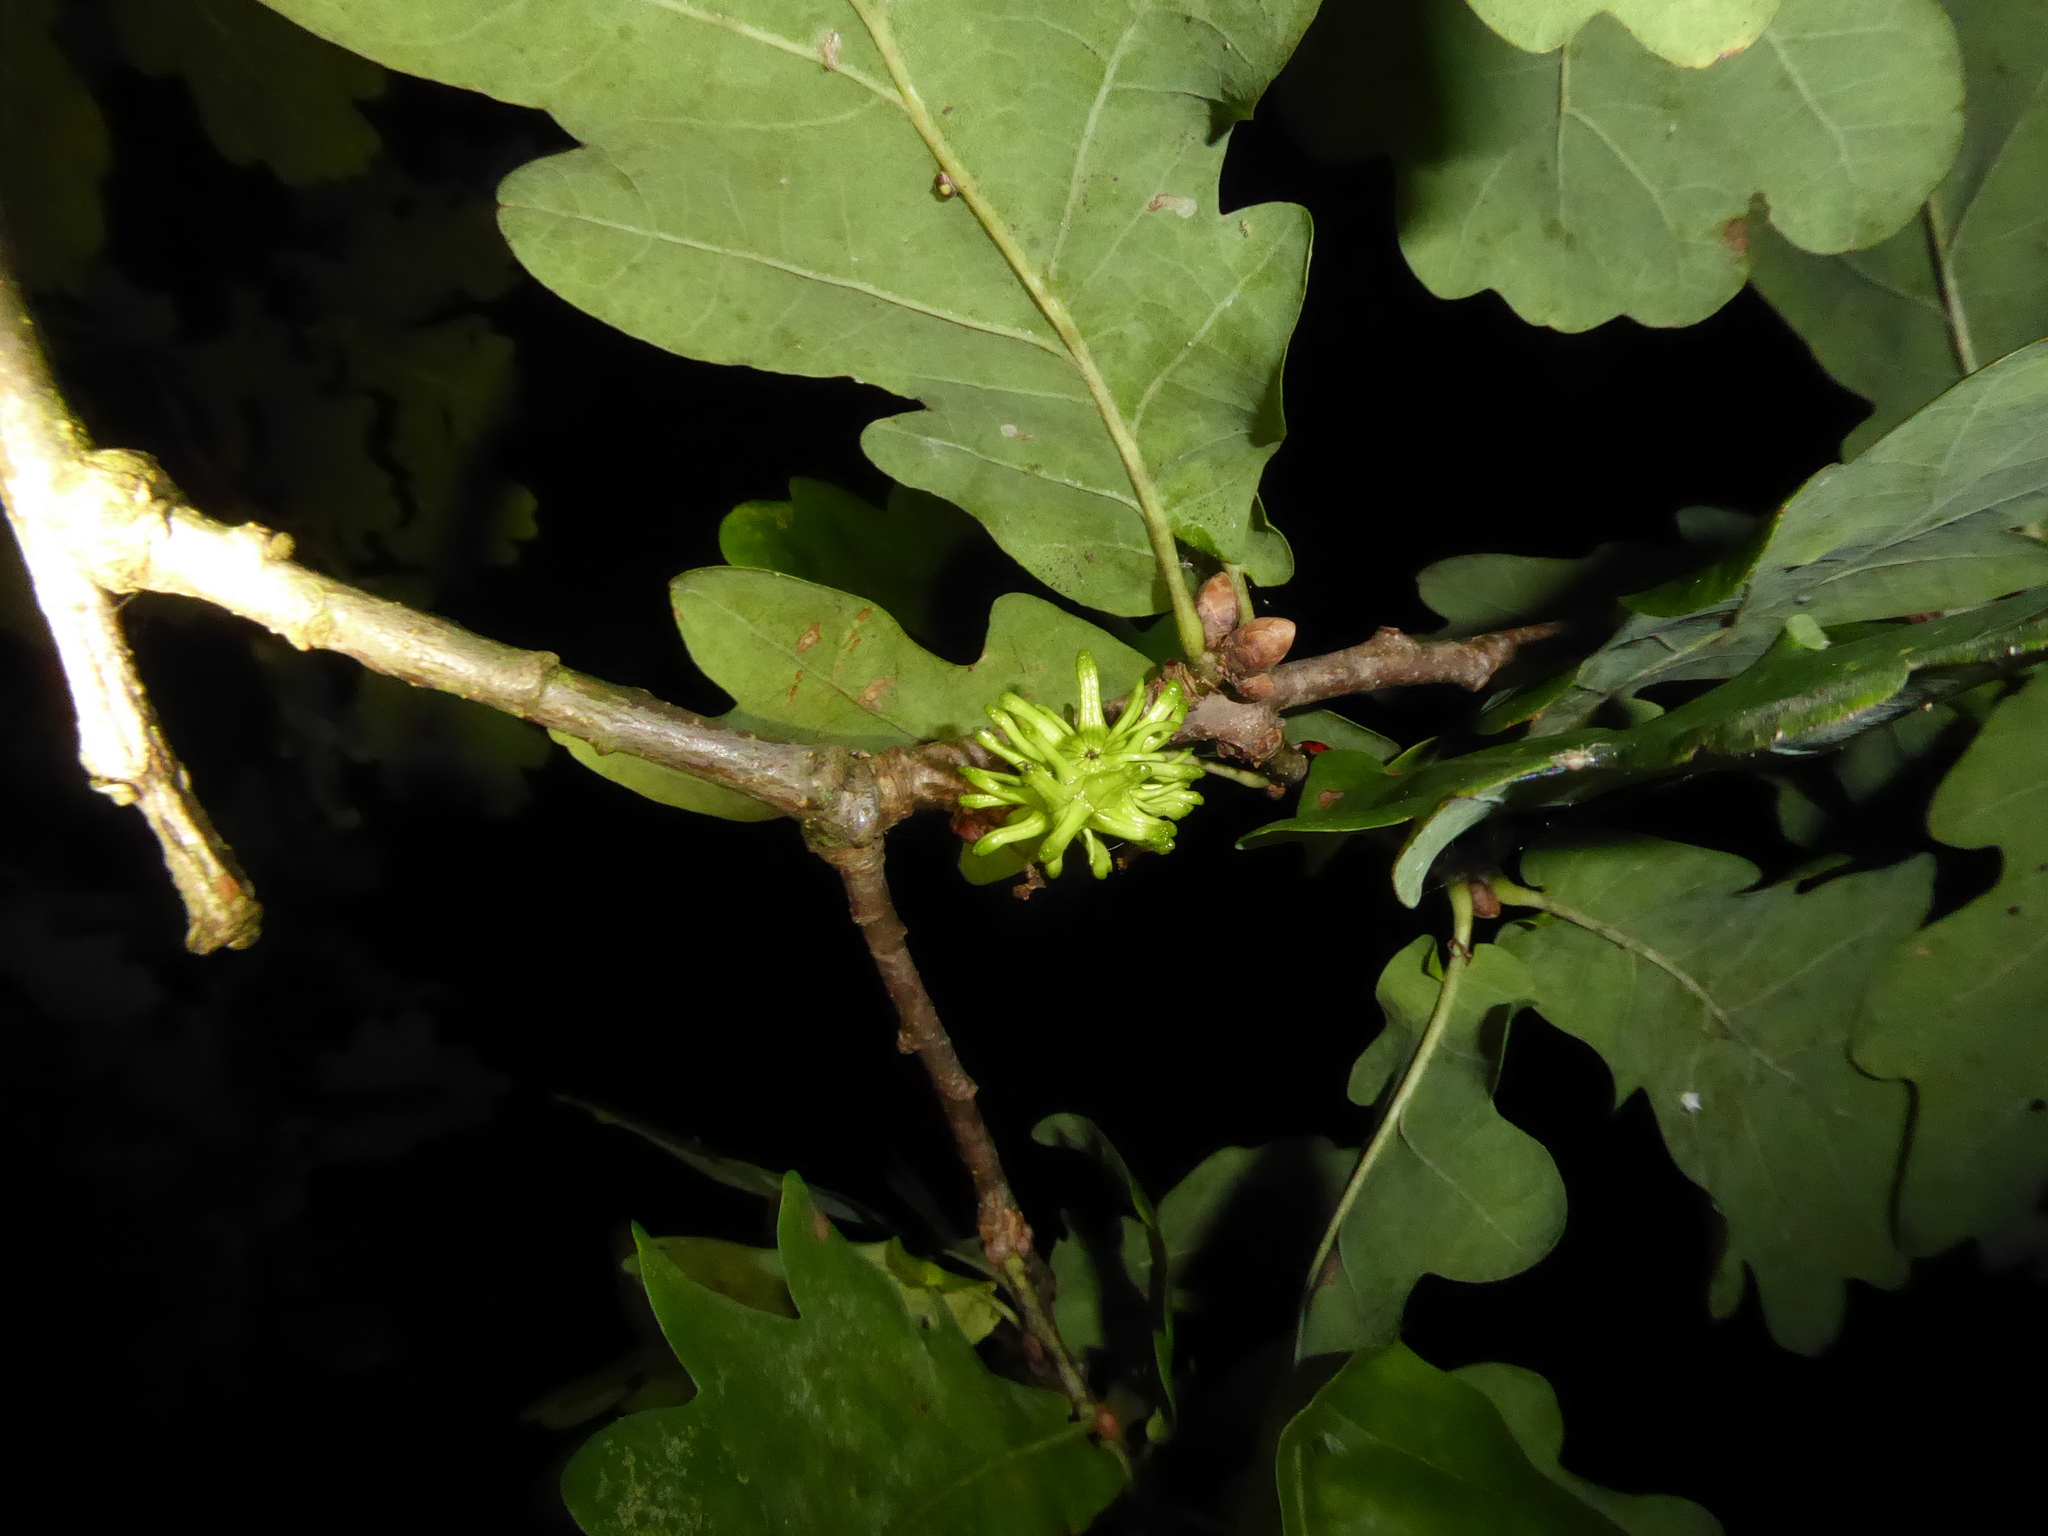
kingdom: Animalia
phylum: Arthropoda
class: Insecta
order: Hymenoptera
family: Cynipidae
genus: Andricus
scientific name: Andricus grossulariae
